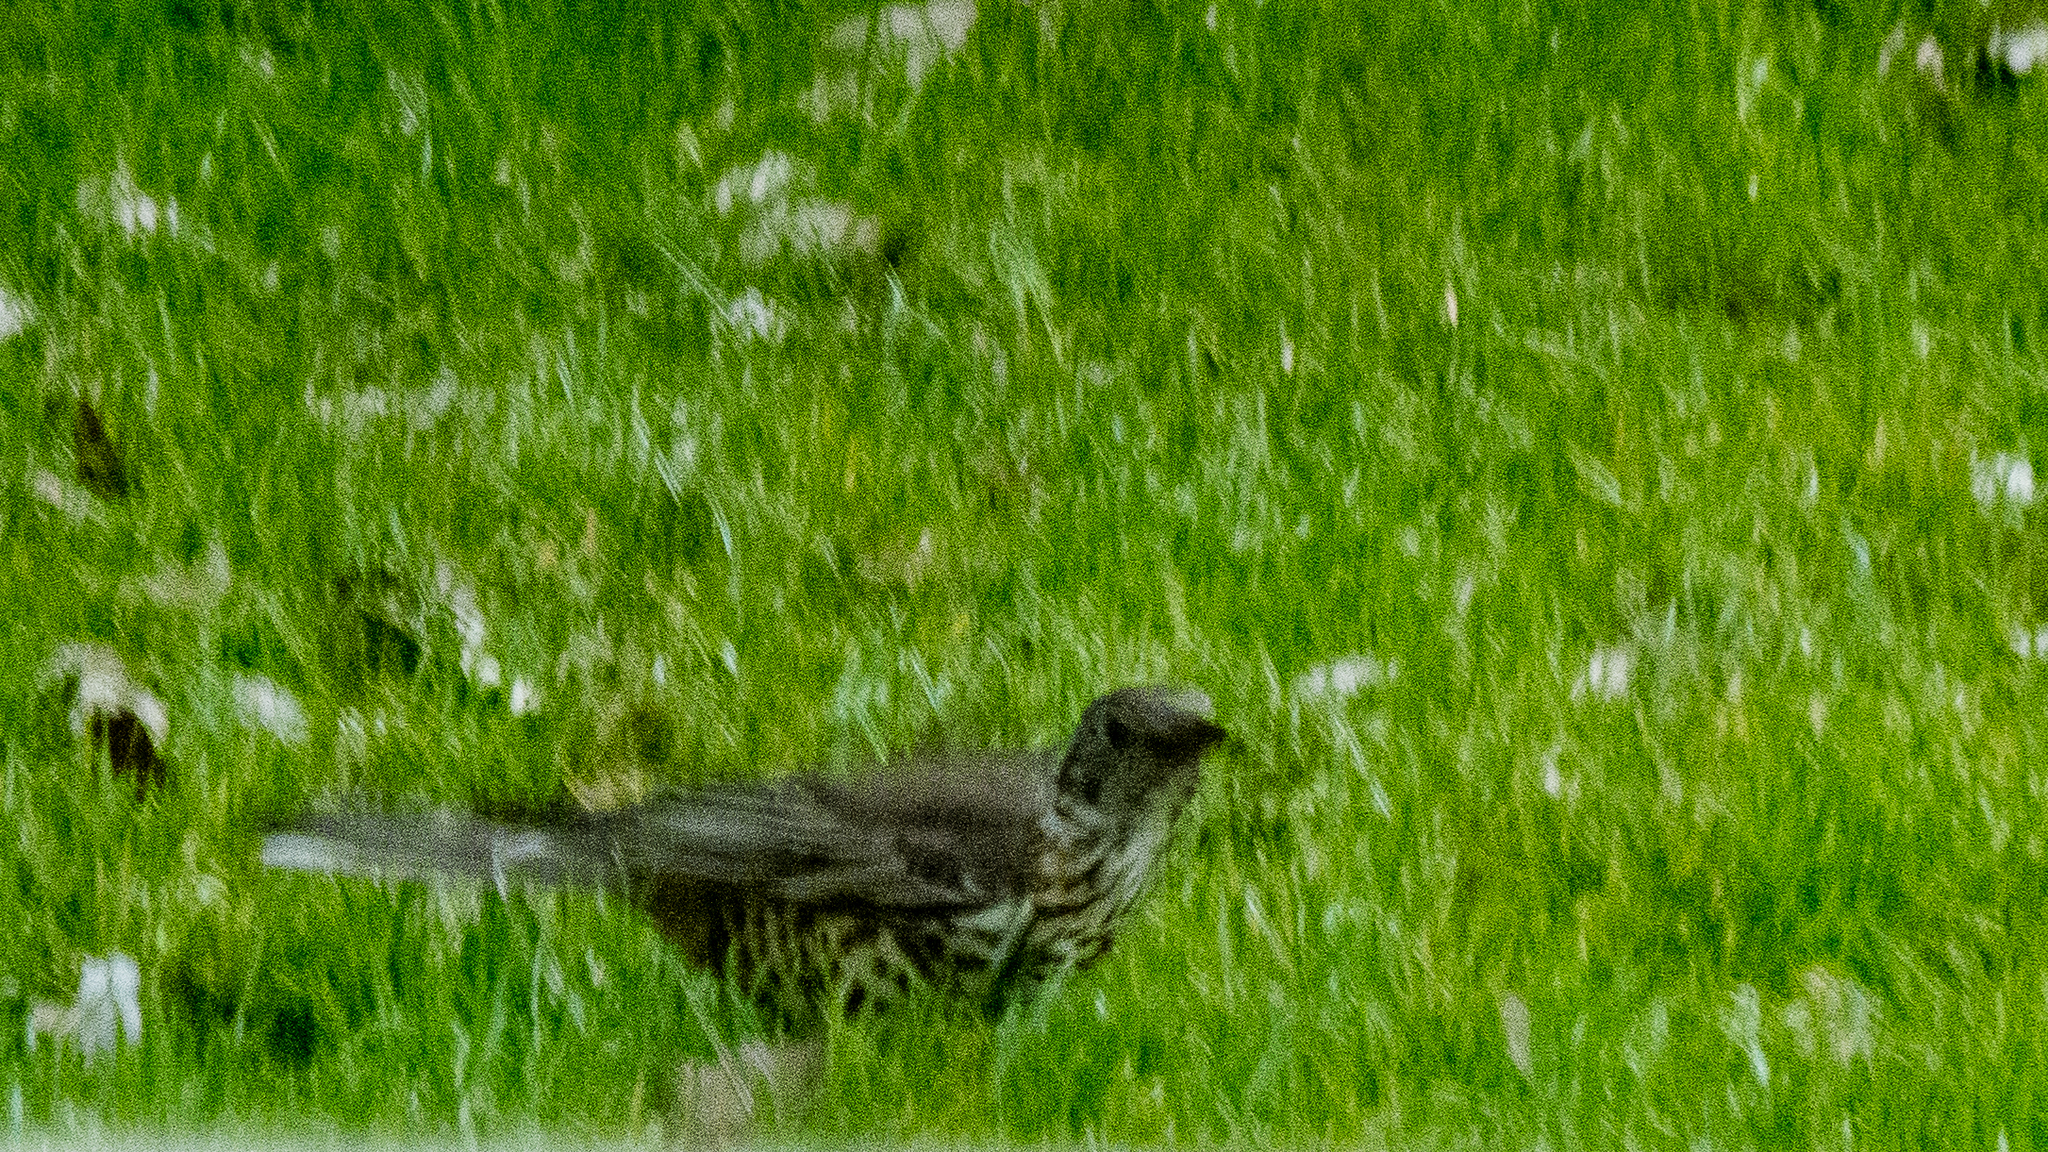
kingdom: Animalia
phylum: Chordata
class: Aves
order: Passeriformes
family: Turdidae
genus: Turdus
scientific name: Turdus viscivorus
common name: Mistle thrush
